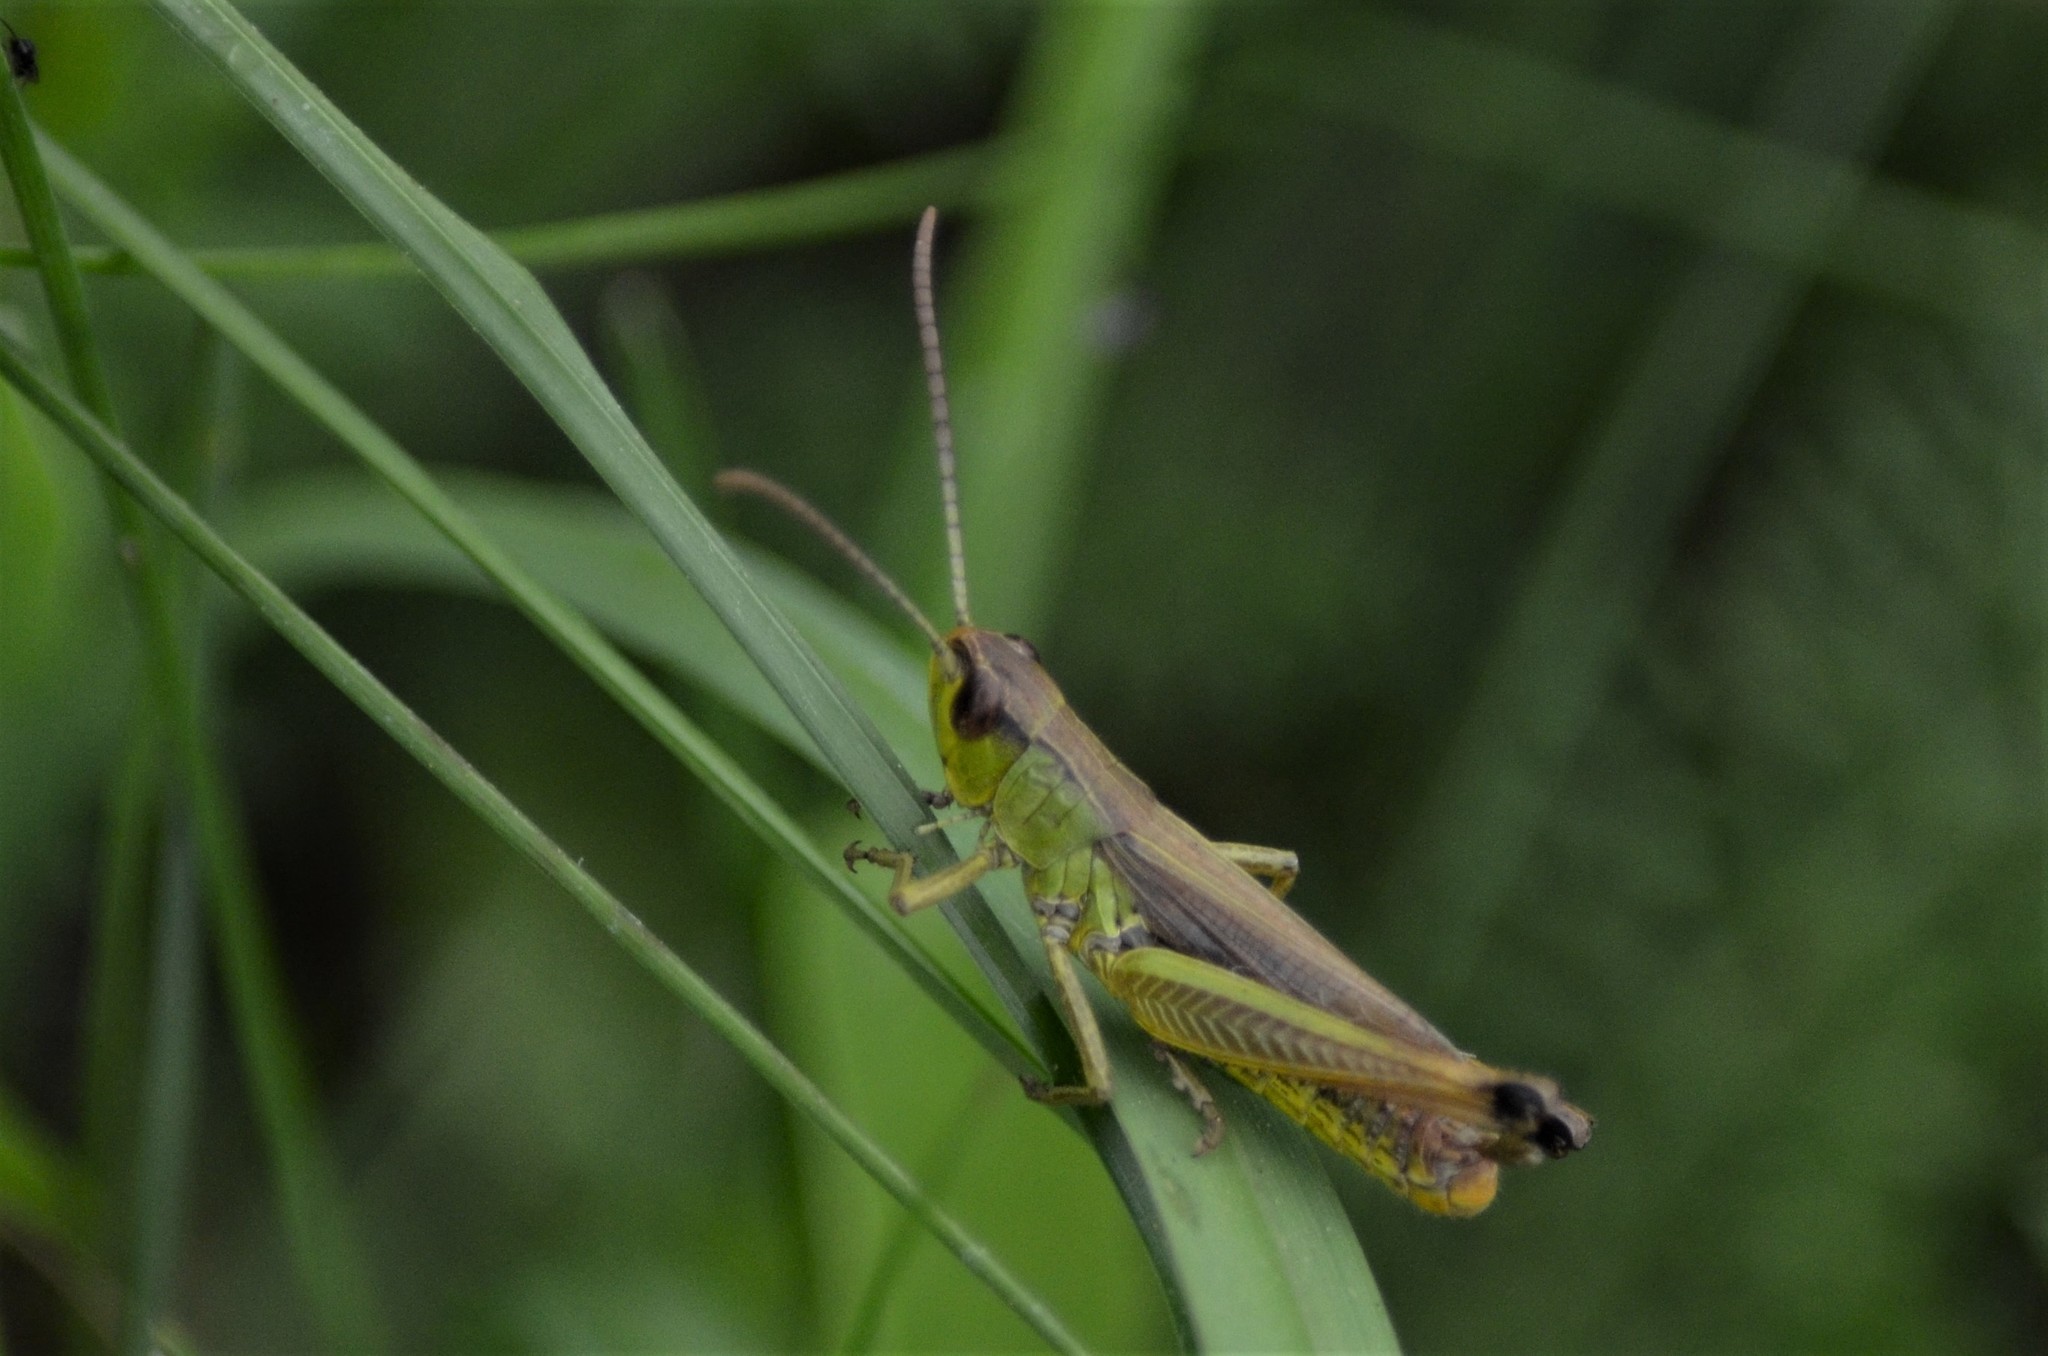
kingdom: Animalia
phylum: Arthropoda
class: Insecta
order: Orthoptera
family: Acrididae
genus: Pseudochorthippus
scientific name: Pseudochorthippus parallelus
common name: Meadow grasshopper
